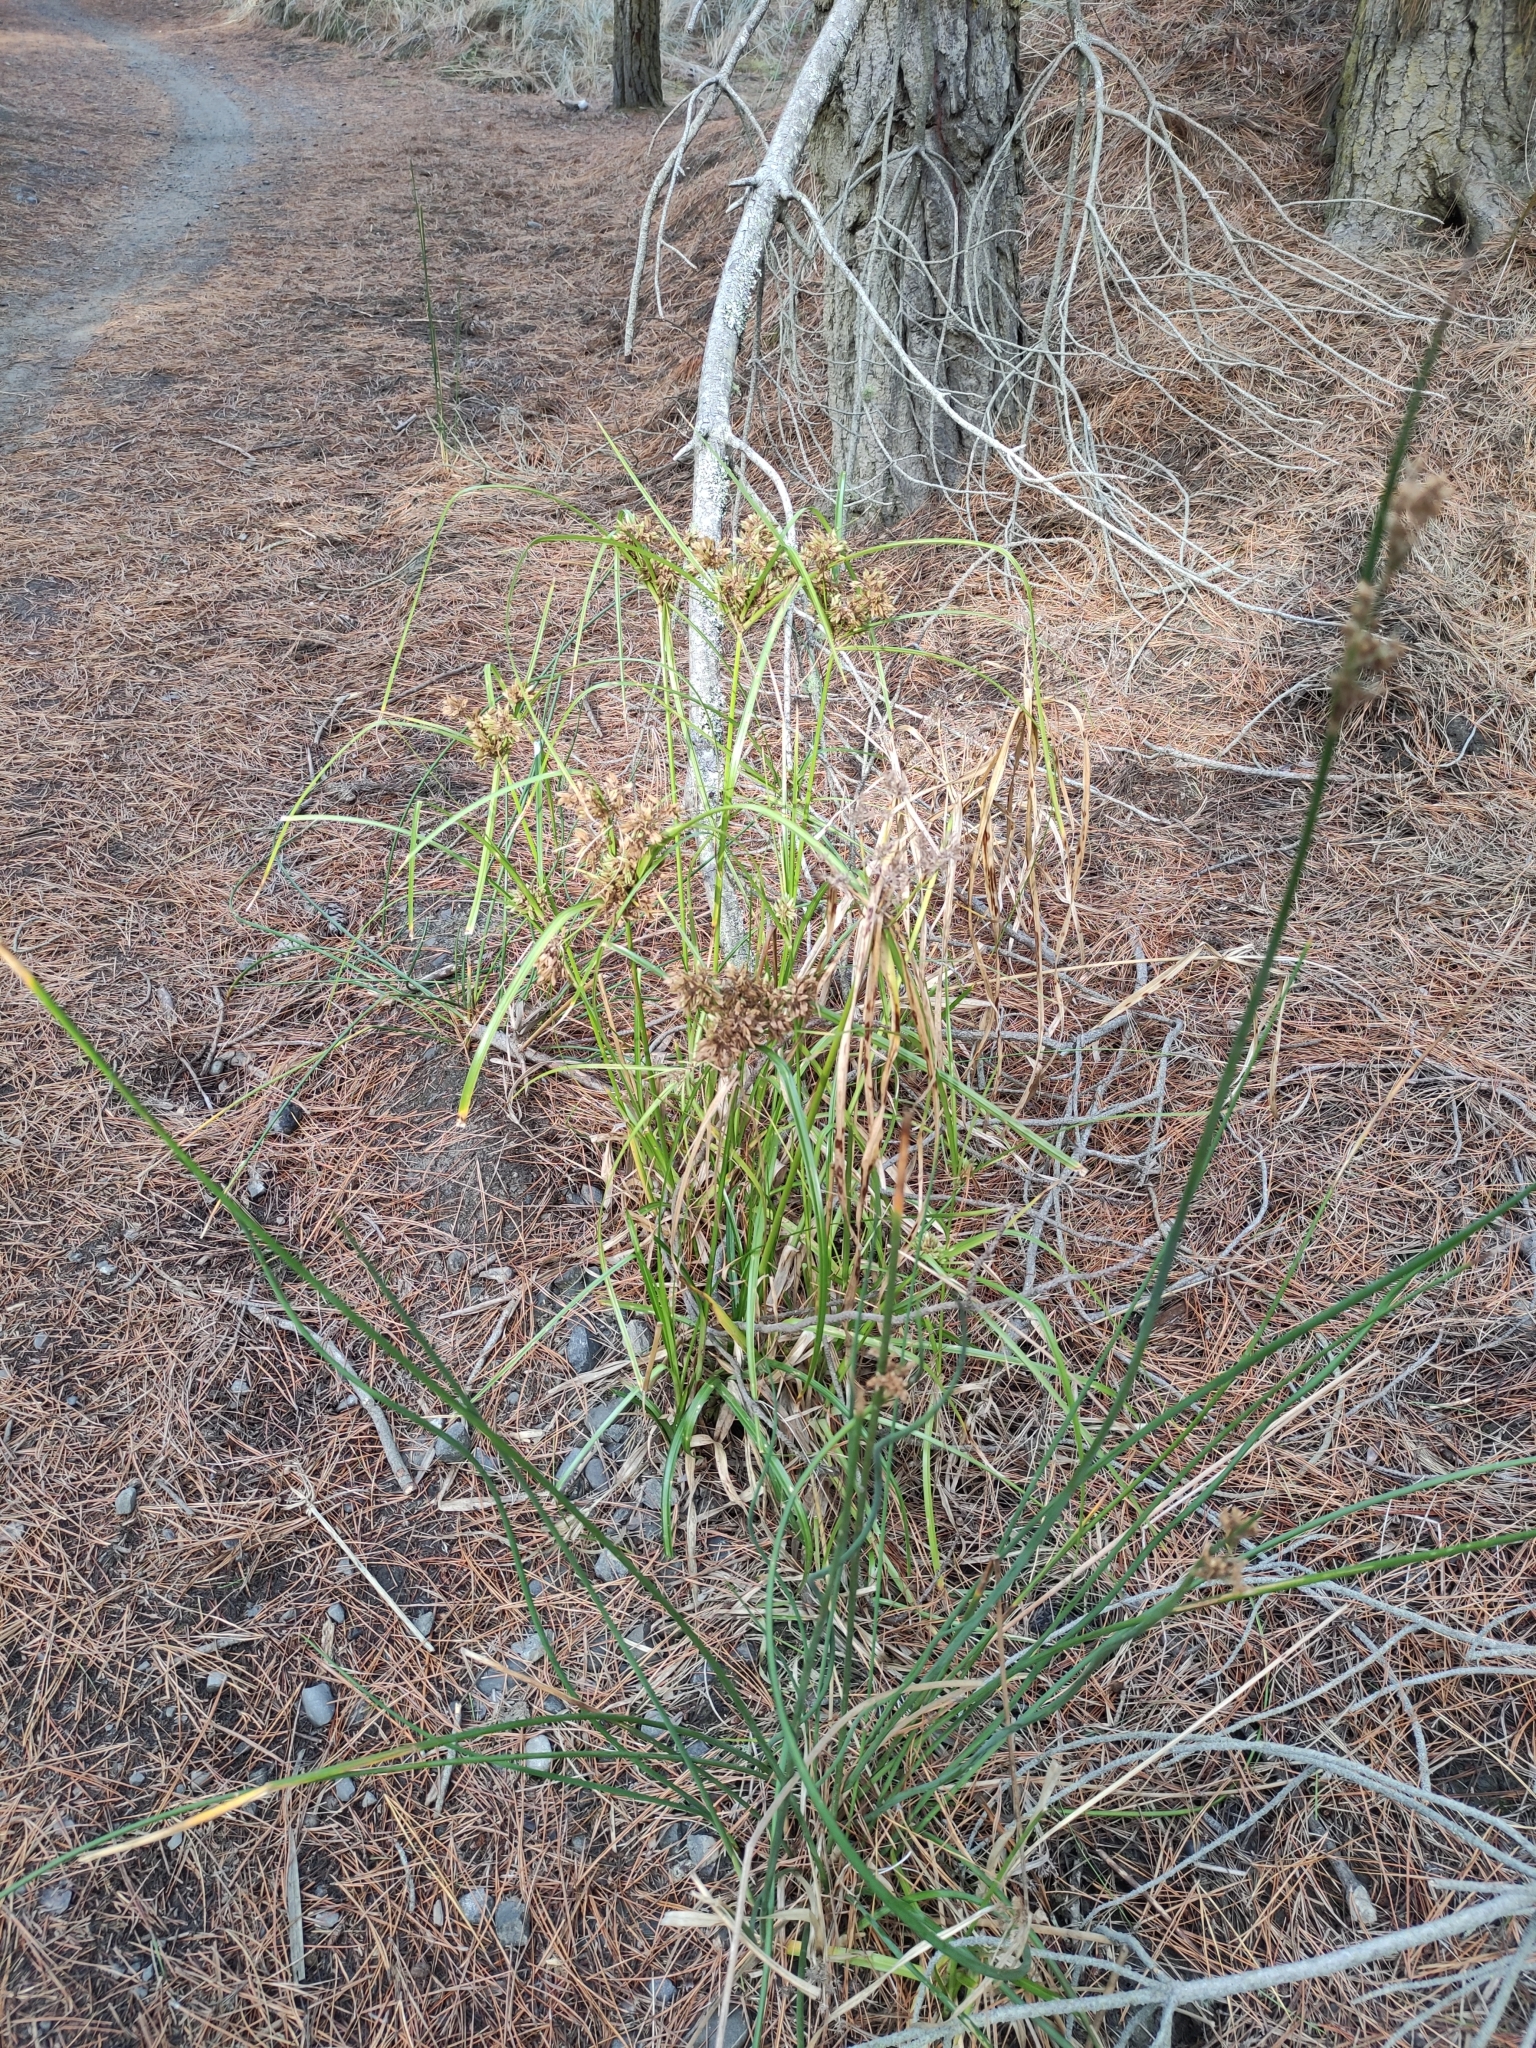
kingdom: Plantae
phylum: Tracheophyta
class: Liliopsida
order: Poales
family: Cyperaceae
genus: Cyperus
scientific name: Cyperus eragrostis
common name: Tall flatsedge
